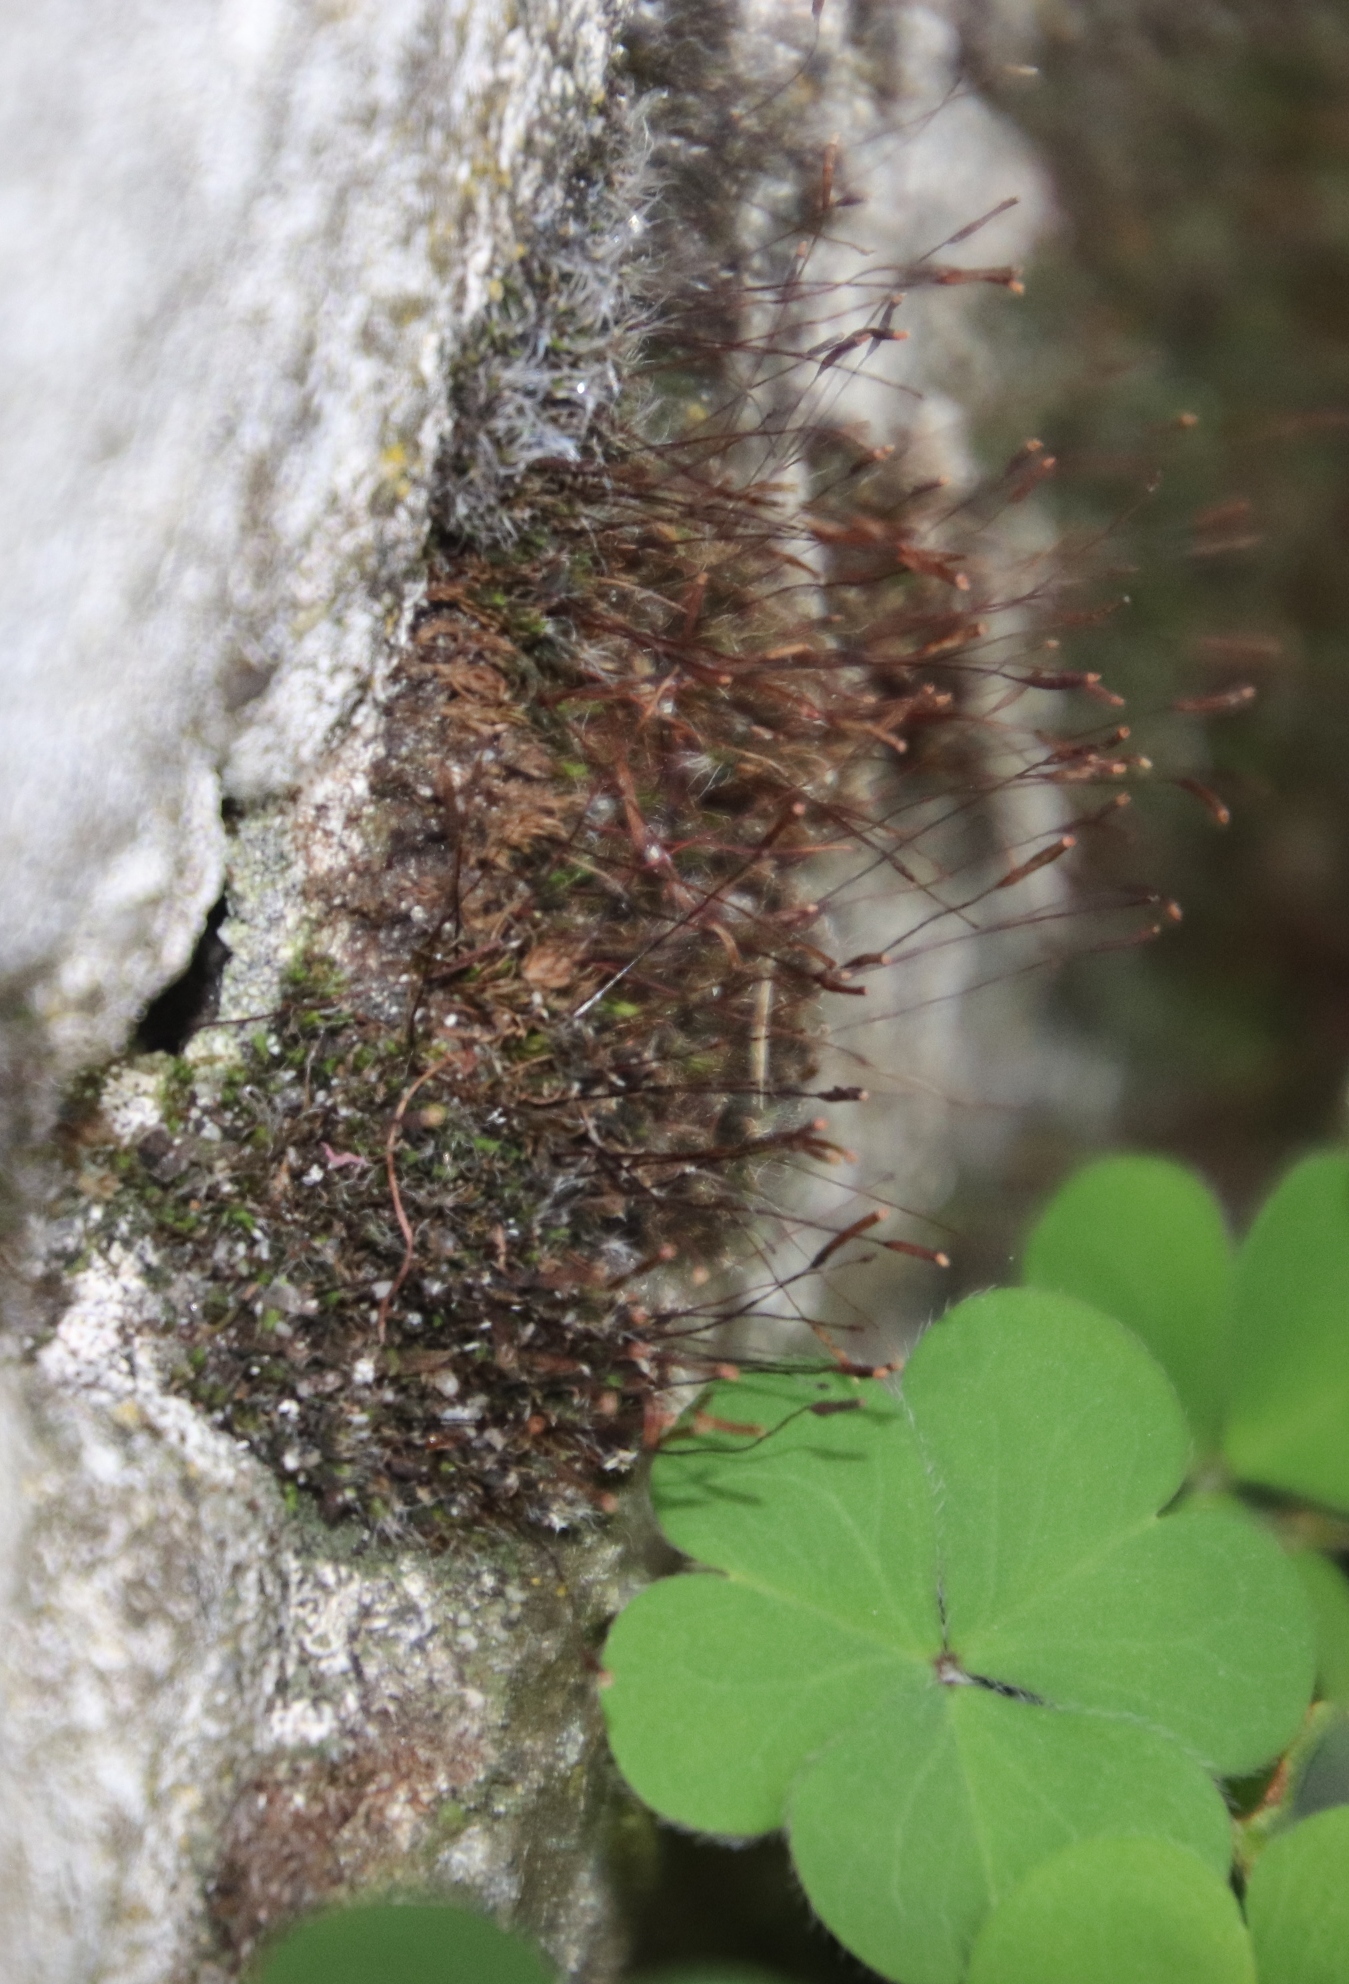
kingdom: Plantae
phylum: Bryophyta
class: Bryopsida
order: Pottiales
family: Pottiaceae
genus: Tortula
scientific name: Tortula muralis
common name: Wall screw-moss
